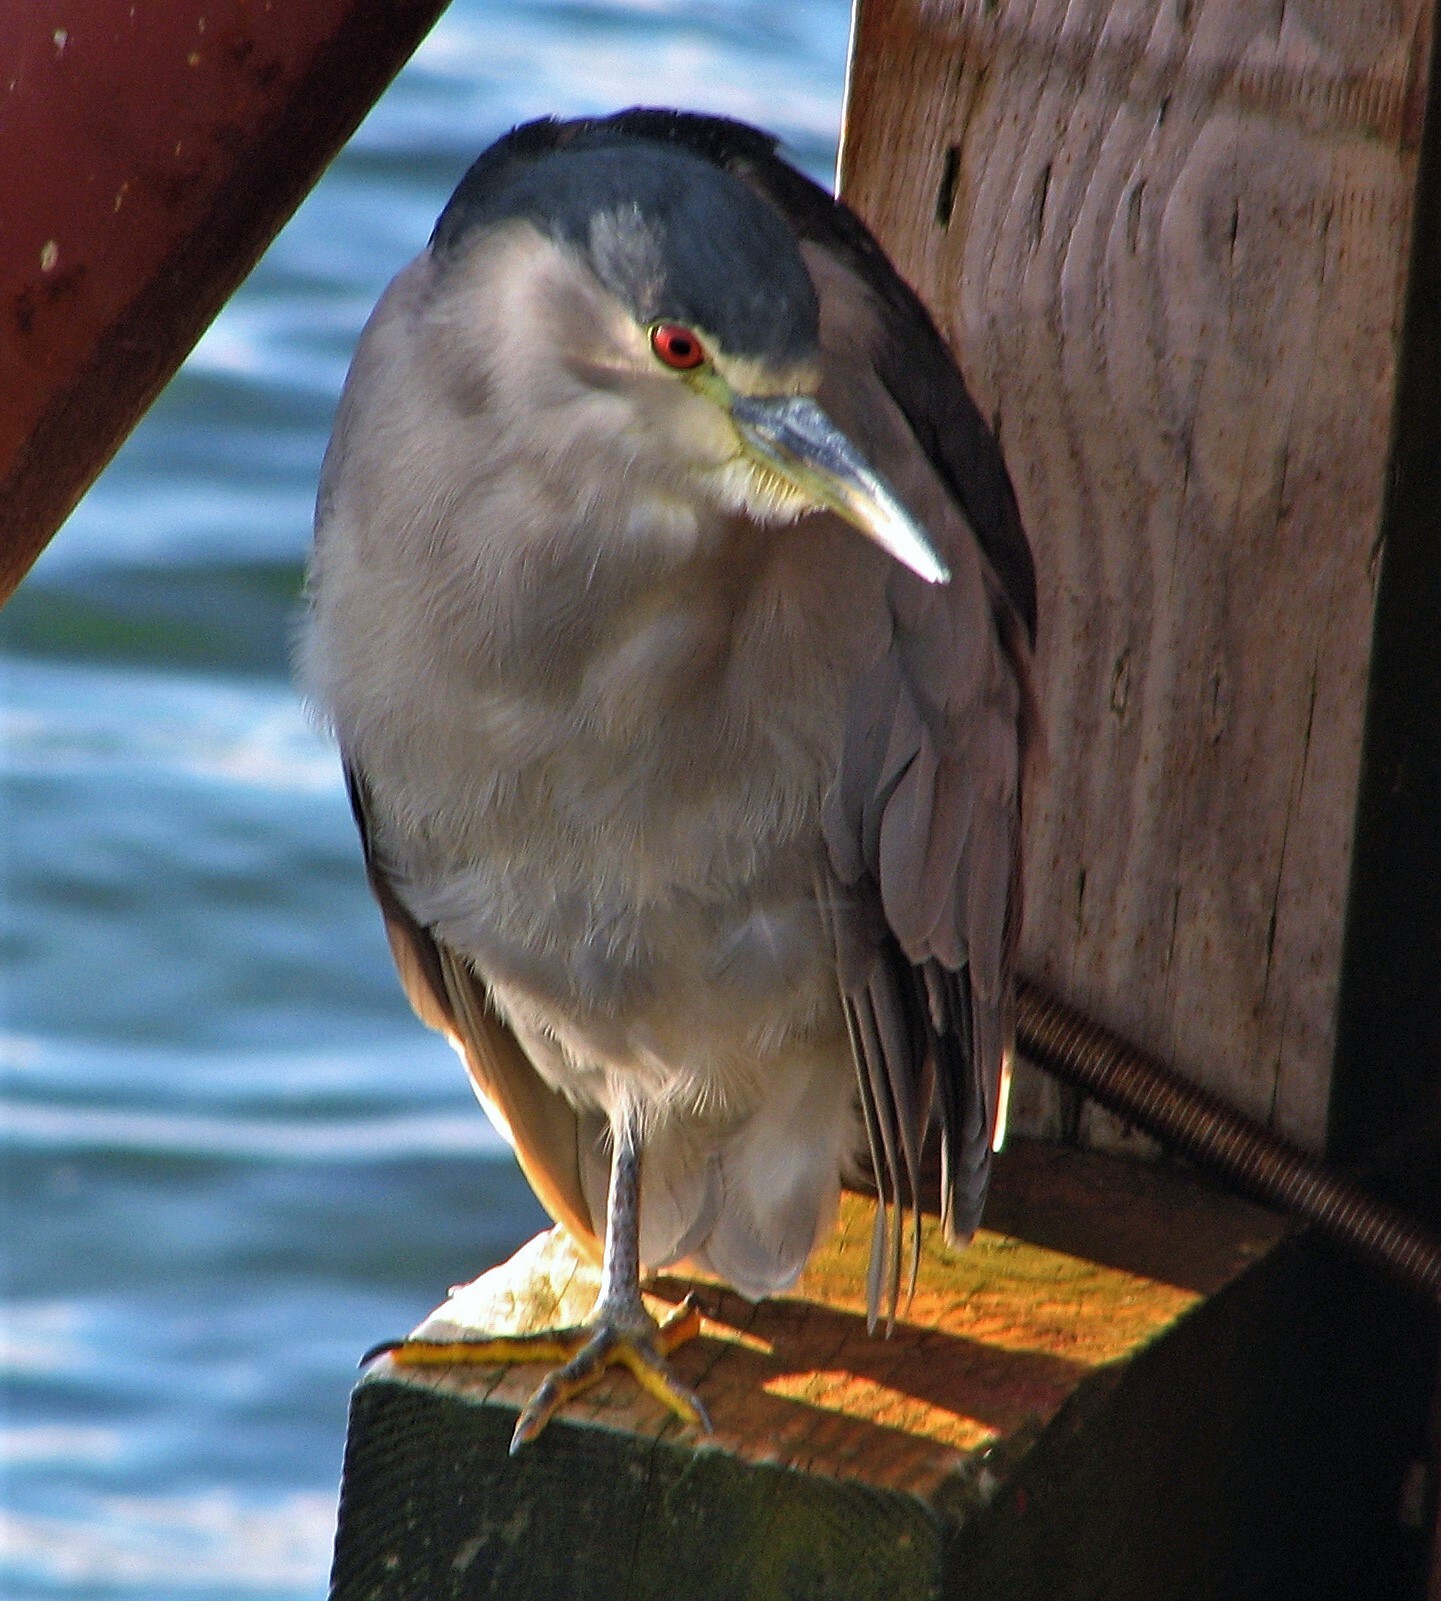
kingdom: Animalia
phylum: Chordata
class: Aves
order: Pelecaniformes
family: Ardeidae
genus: Nycticorax
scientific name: Nycticorax nycticorax
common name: Black-crowned night heron
